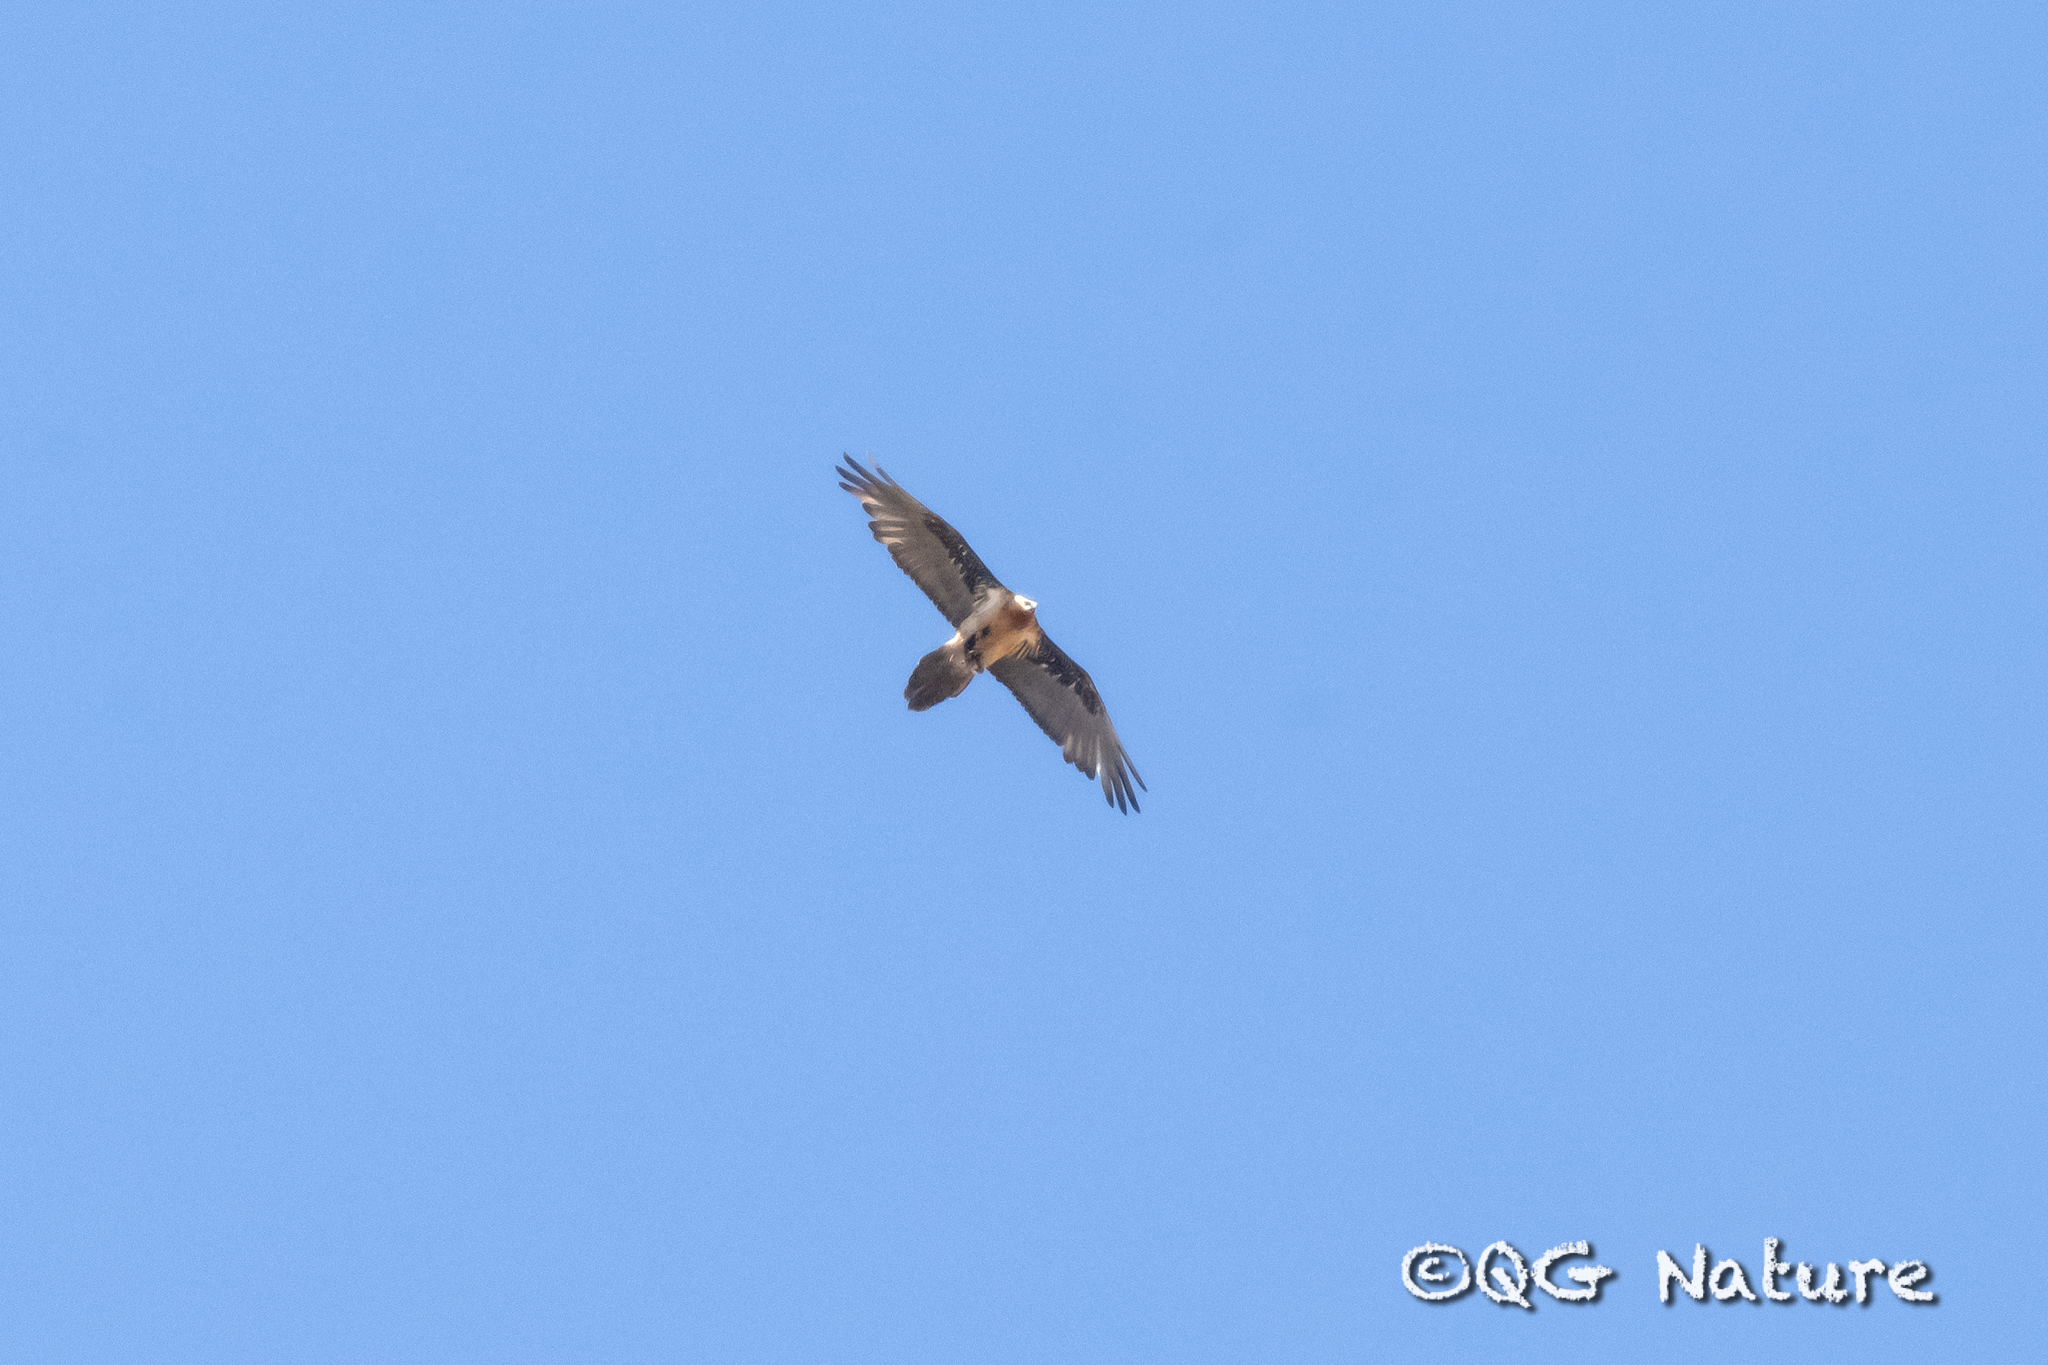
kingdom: Animalia
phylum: Chordata
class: Aves
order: Accipitriformes
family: Accipitridae
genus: Gypaetus
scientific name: Gypaetus barbatus
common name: Bearded vulture
